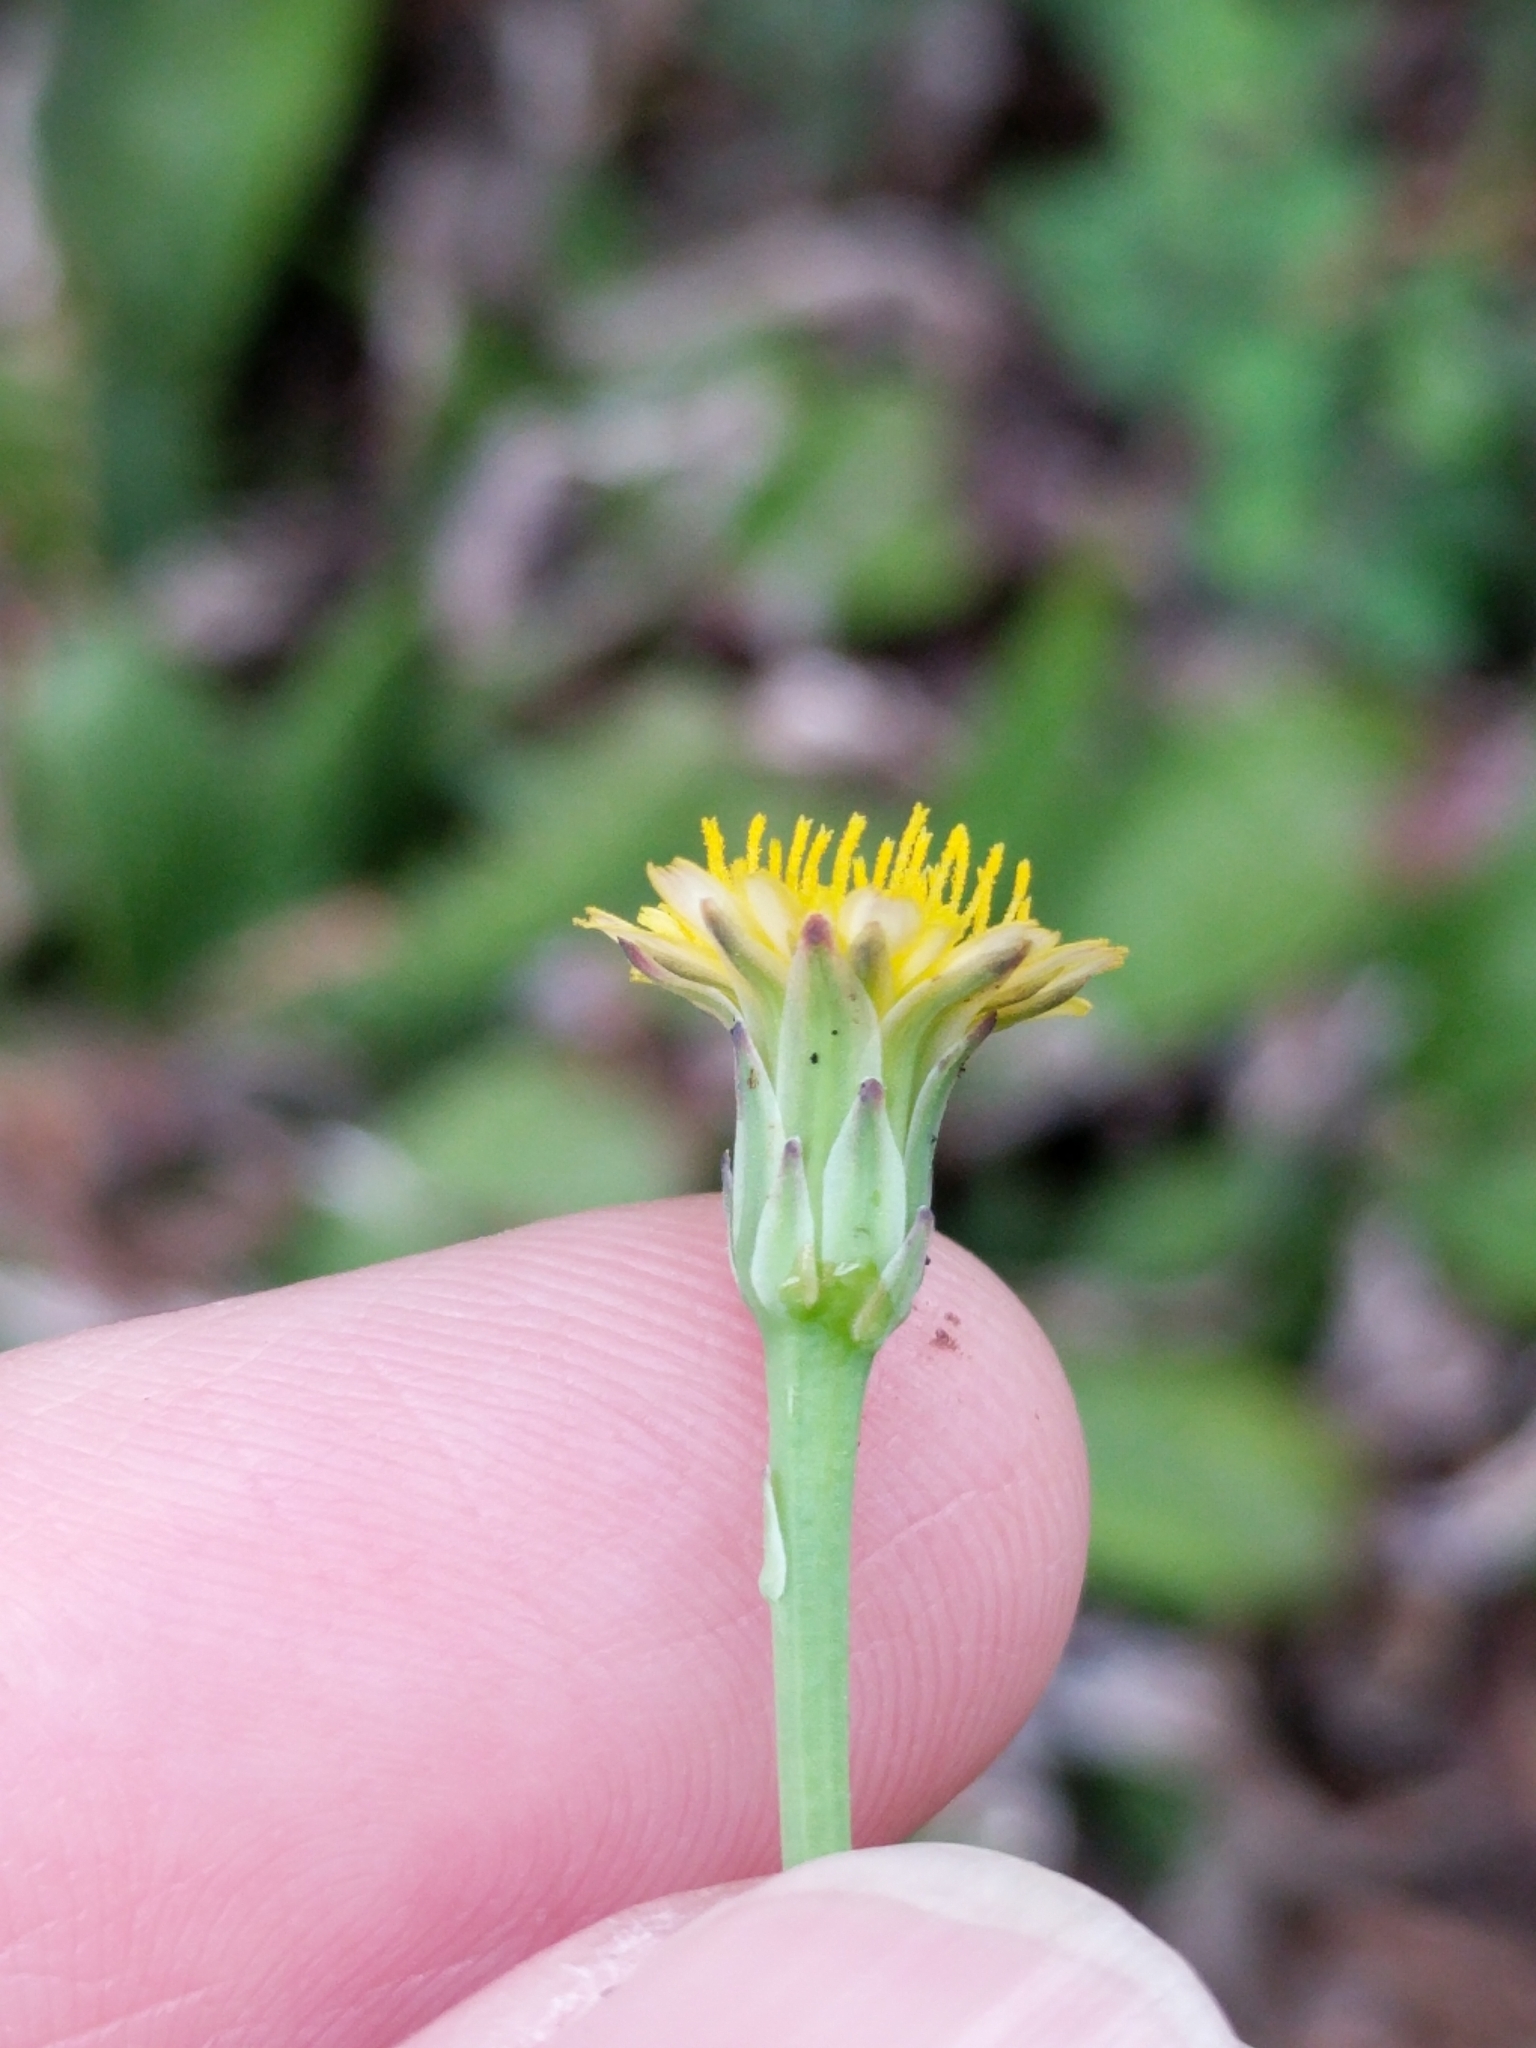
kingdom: Plantae
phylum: Tracheophyta
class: Magnoliopsida
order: Asterales
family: Asteraceae
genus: Hypochaeris
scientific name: Hypochaeris glabra
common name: Smooth catsear
